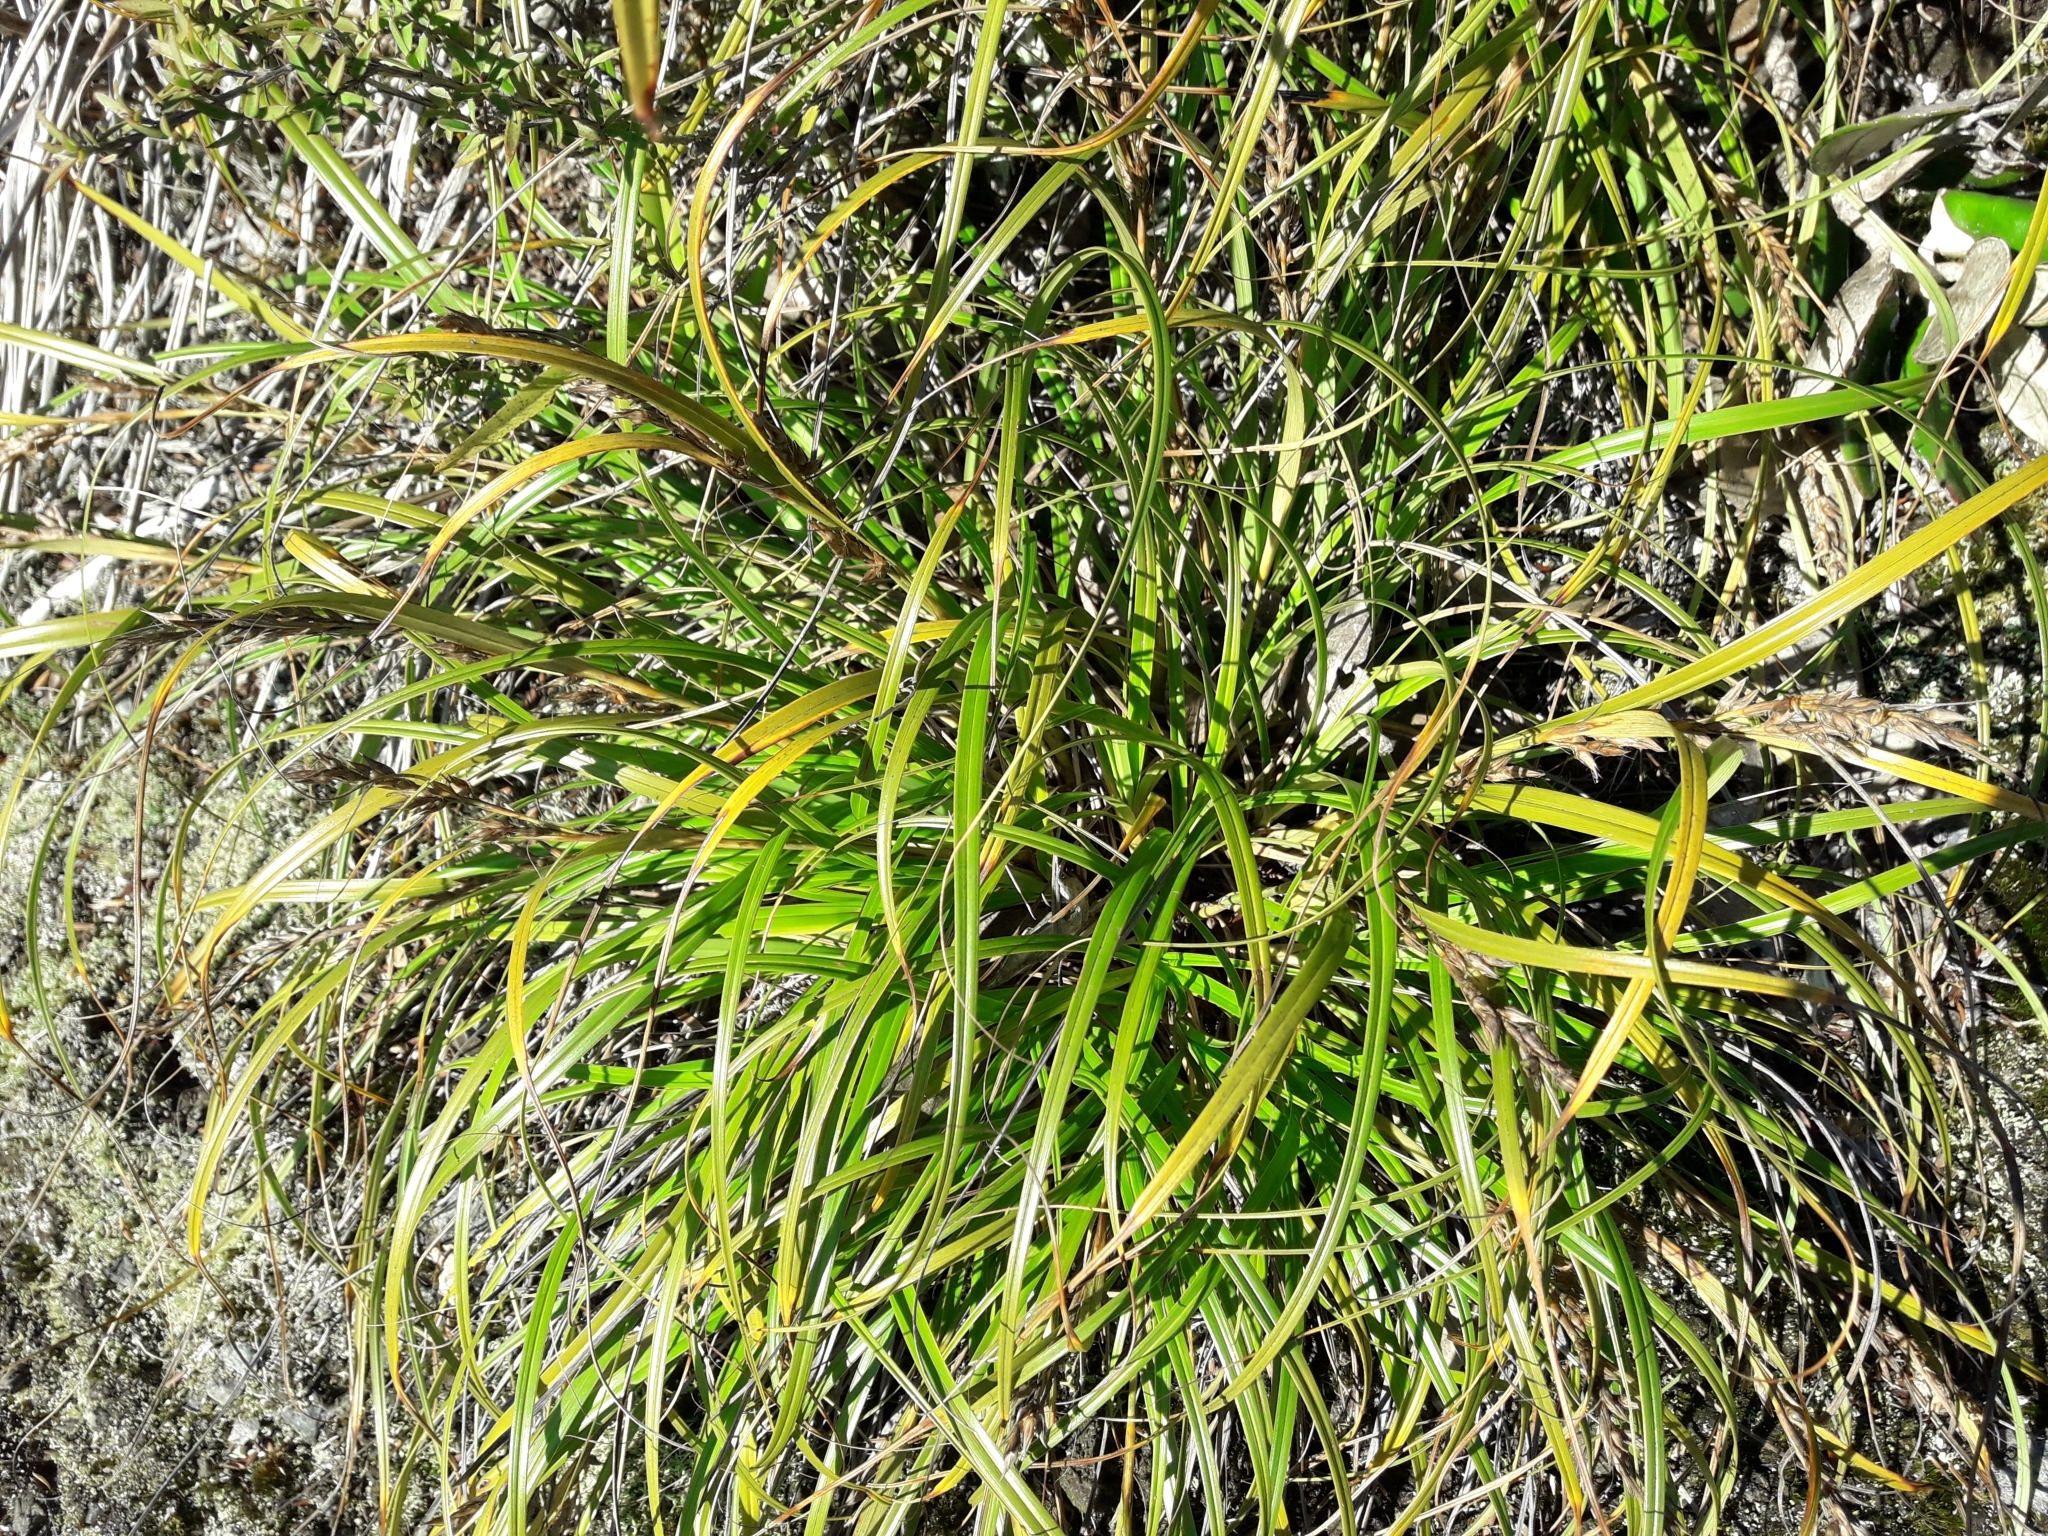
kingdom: Plantae
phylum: Tracheophyta
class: Liliopsida
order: Poales
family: Cyperaceae
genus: Morelotia
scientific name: Morelotia affinis
